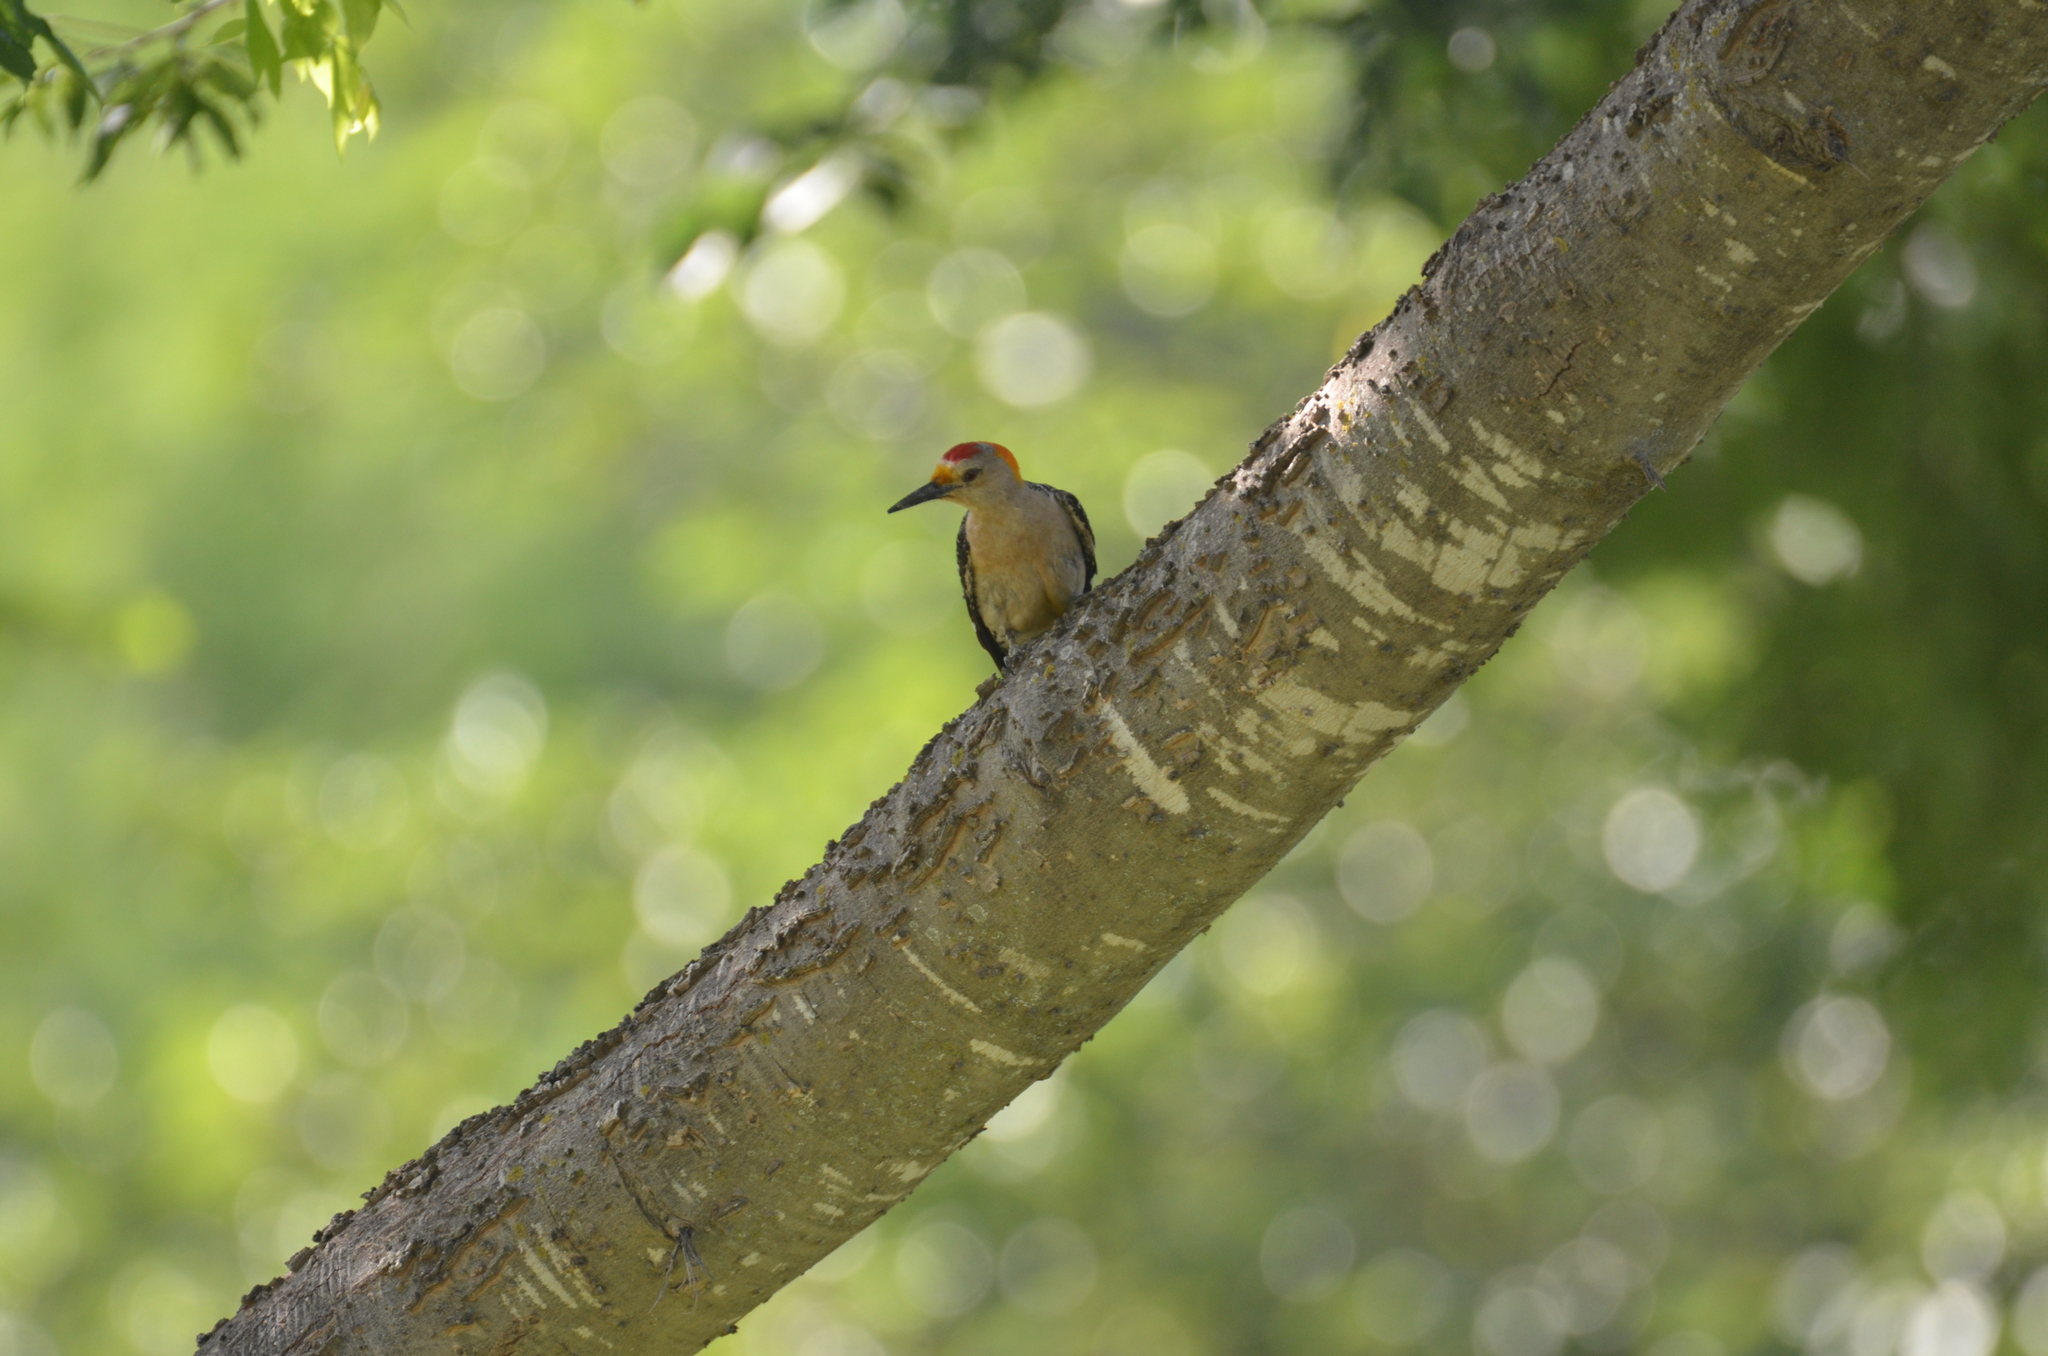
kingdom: Animalia
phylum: Chordata
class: Aves
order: Piciformes
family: Picidae
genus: Melanerpes
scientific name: Melanerpes aurifrons
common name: Golden-fronted woodpecker
